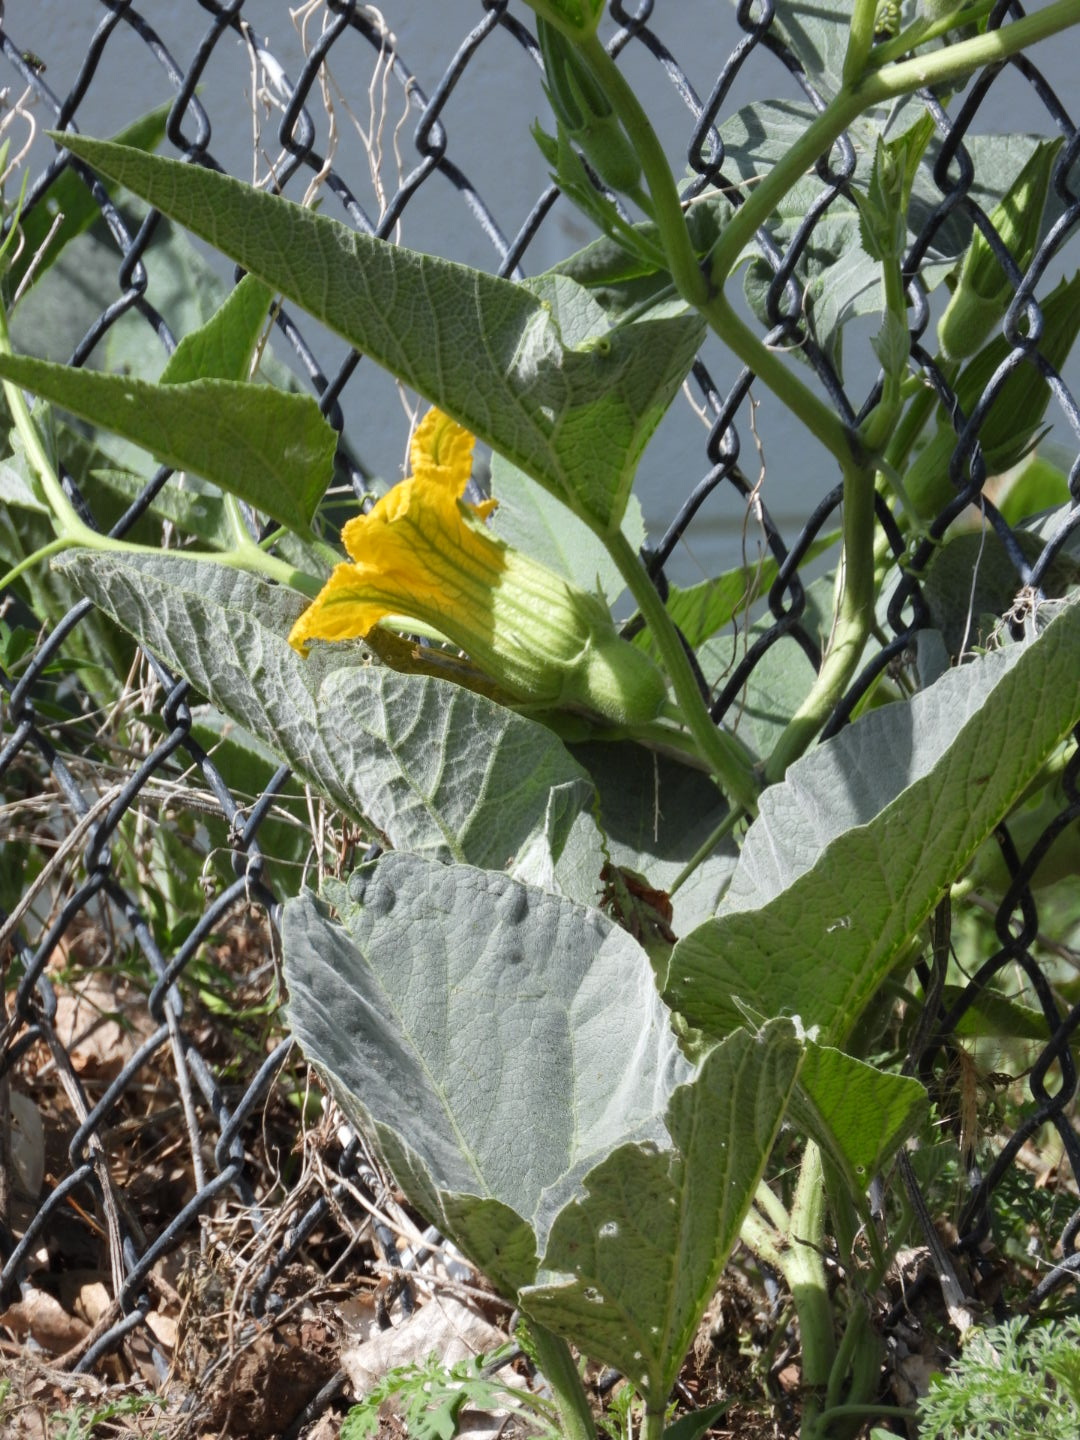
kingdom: Plantae
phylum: Tracheophyta
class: Magnoliopsida
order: Cucurbitales
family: Cucurbitaceae
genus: Cucurbita
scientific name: Cucurbita foetidissima
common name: Buffalo gourd
